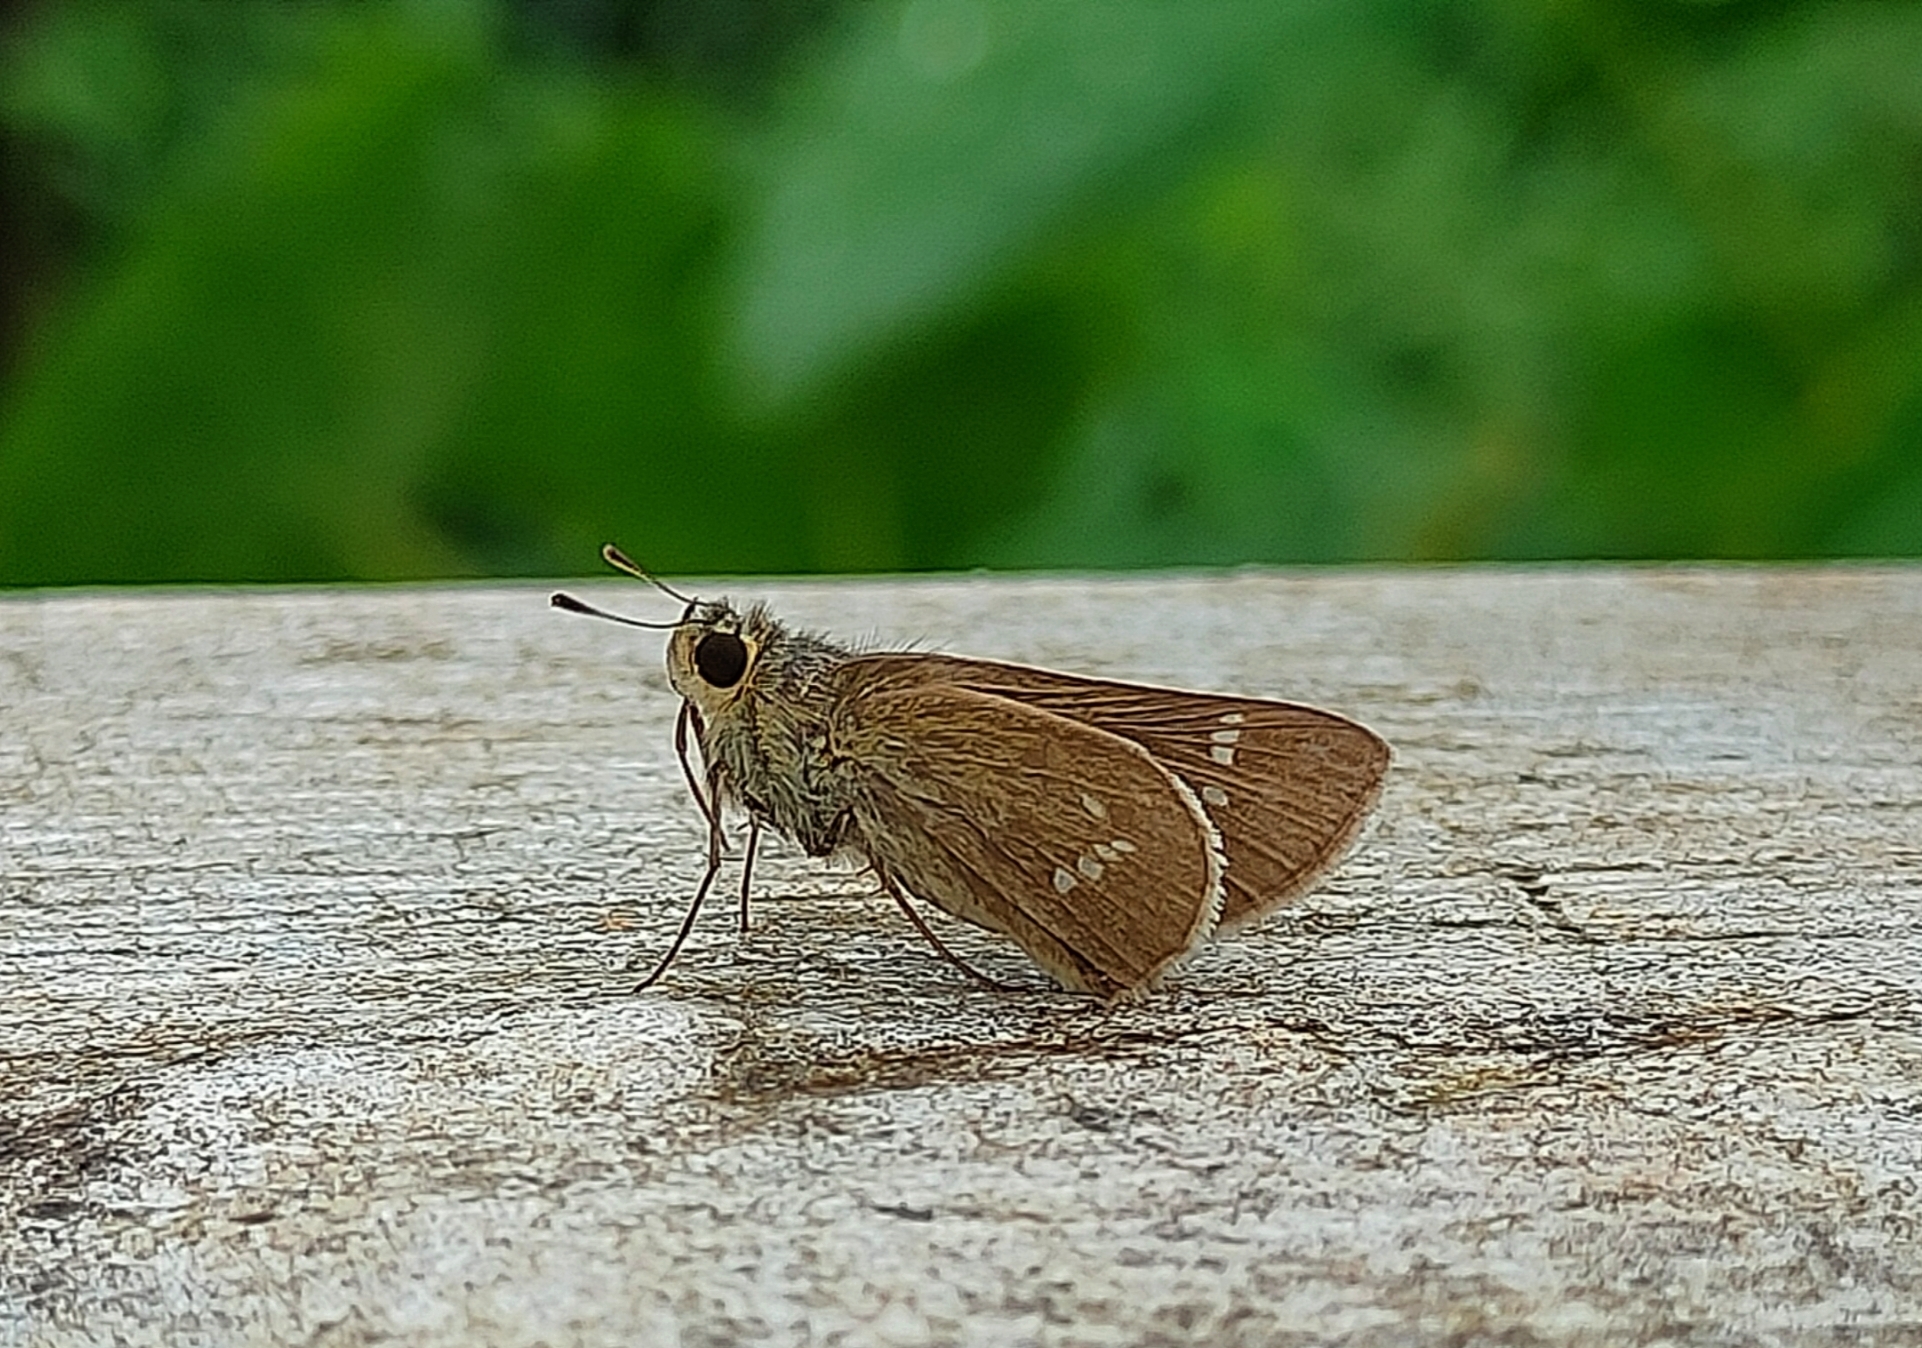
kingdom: Animalia
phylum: Arthropoda
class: Insecta
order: Lepidoptera
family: Hesperiidae
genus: Parnara
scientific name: Parnara naso
